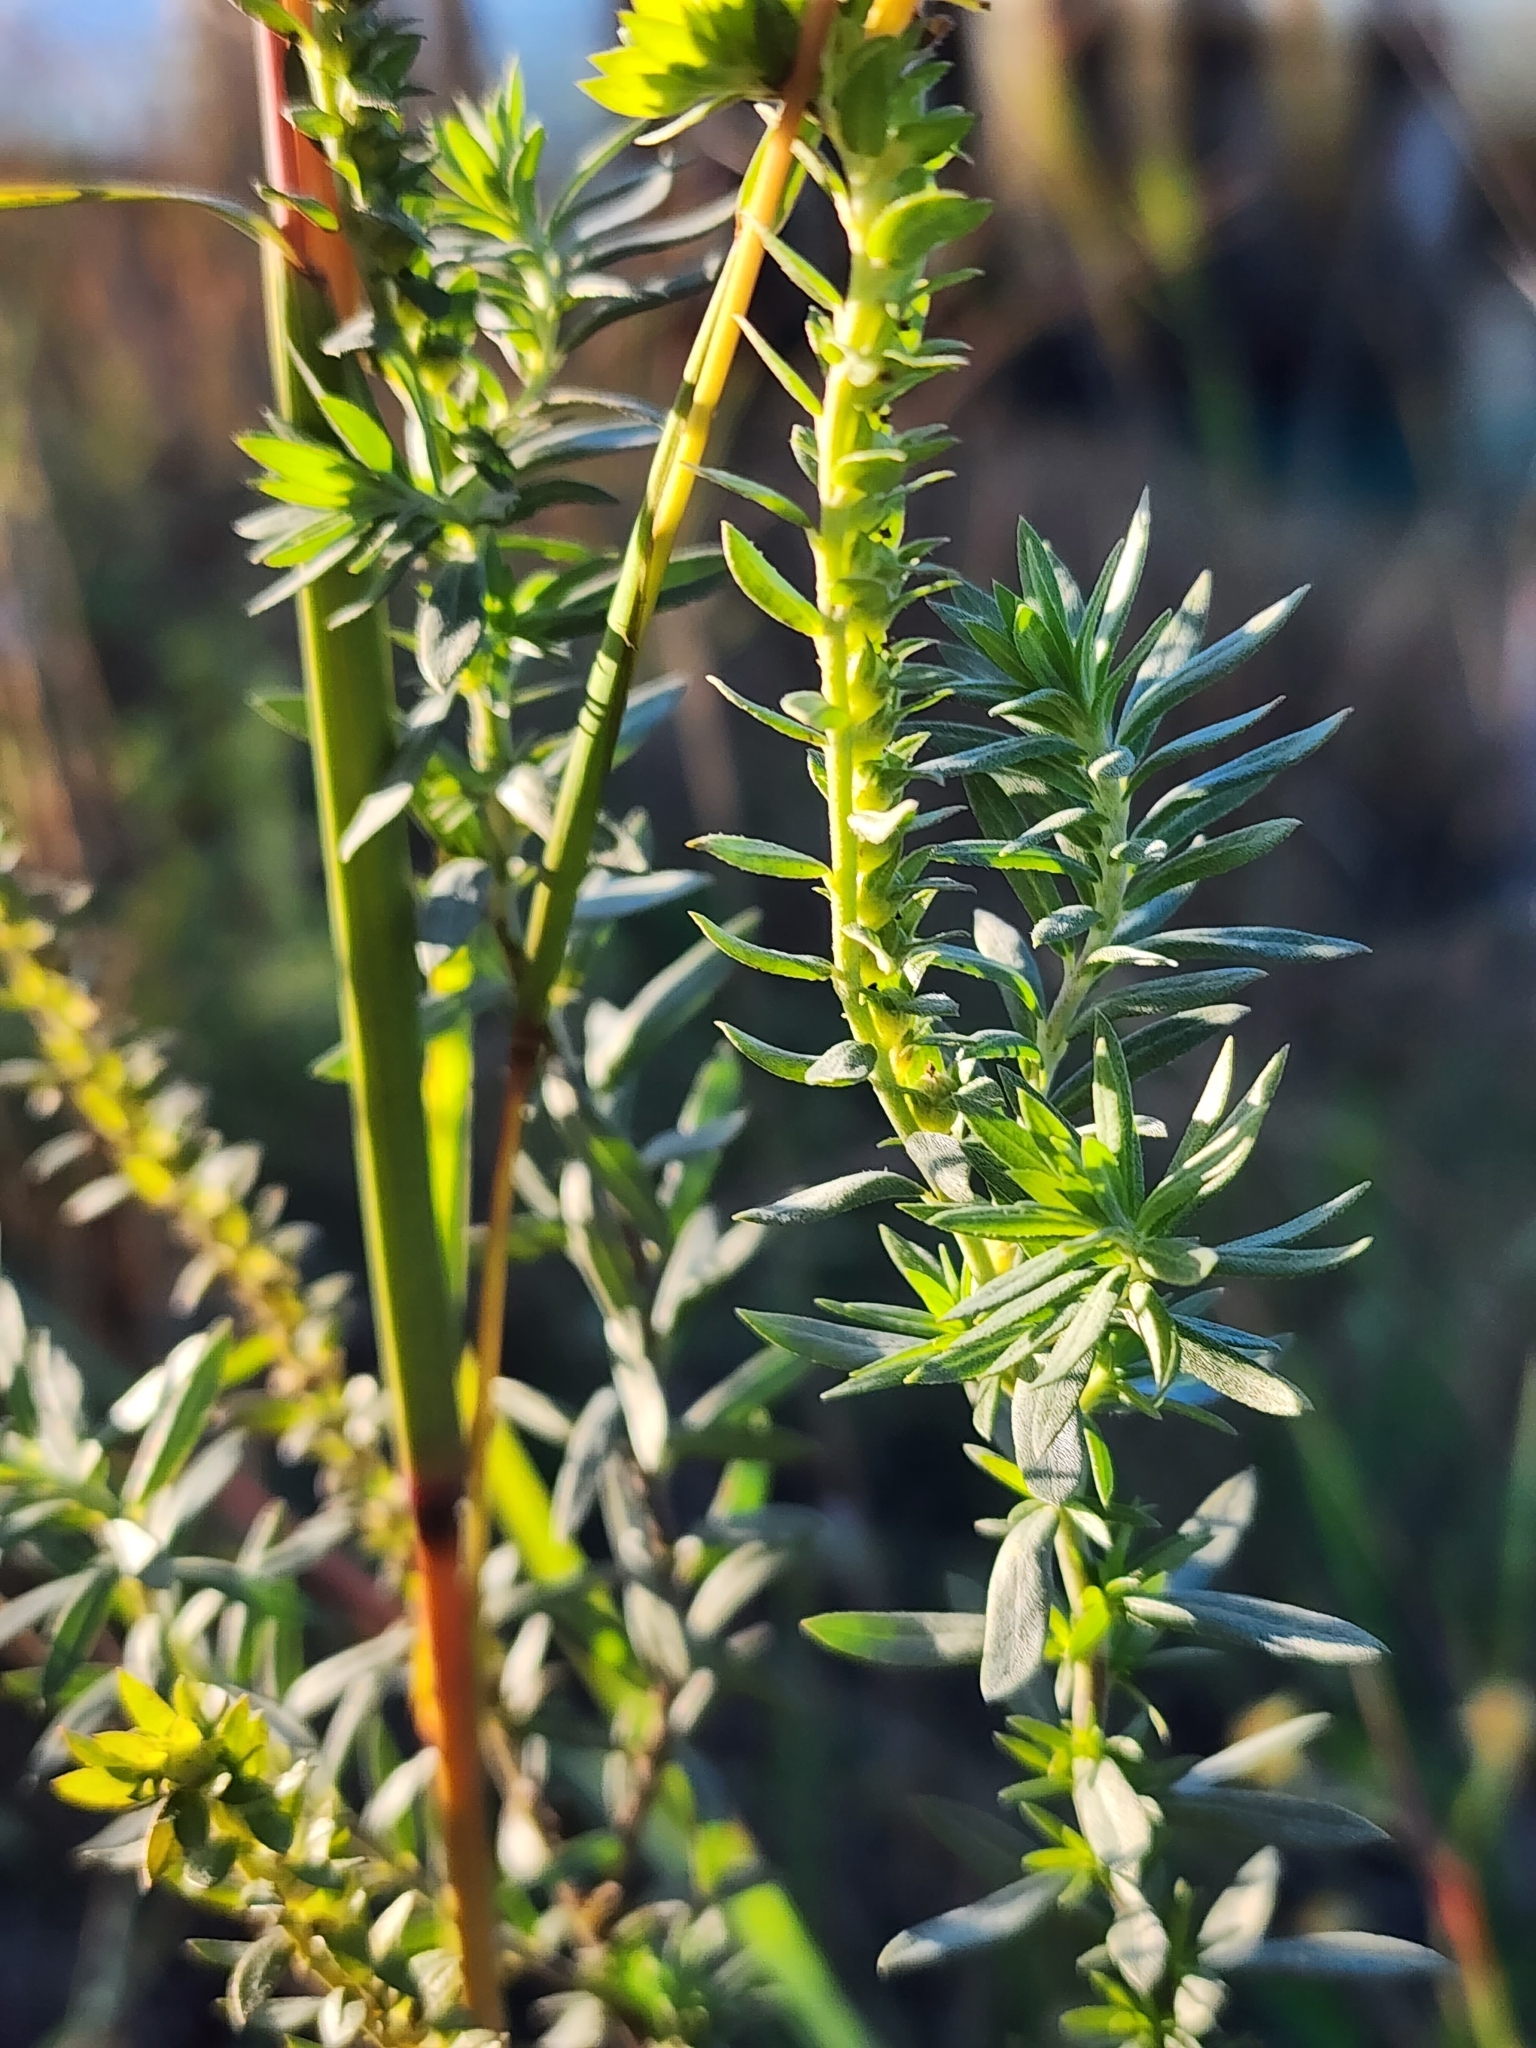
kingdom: Plantae
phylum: Tracheophyta
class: Magnoliopsida
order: Boraginales
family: Heliotropiaceae
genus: Euploca
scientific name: Euploca polyphylla
